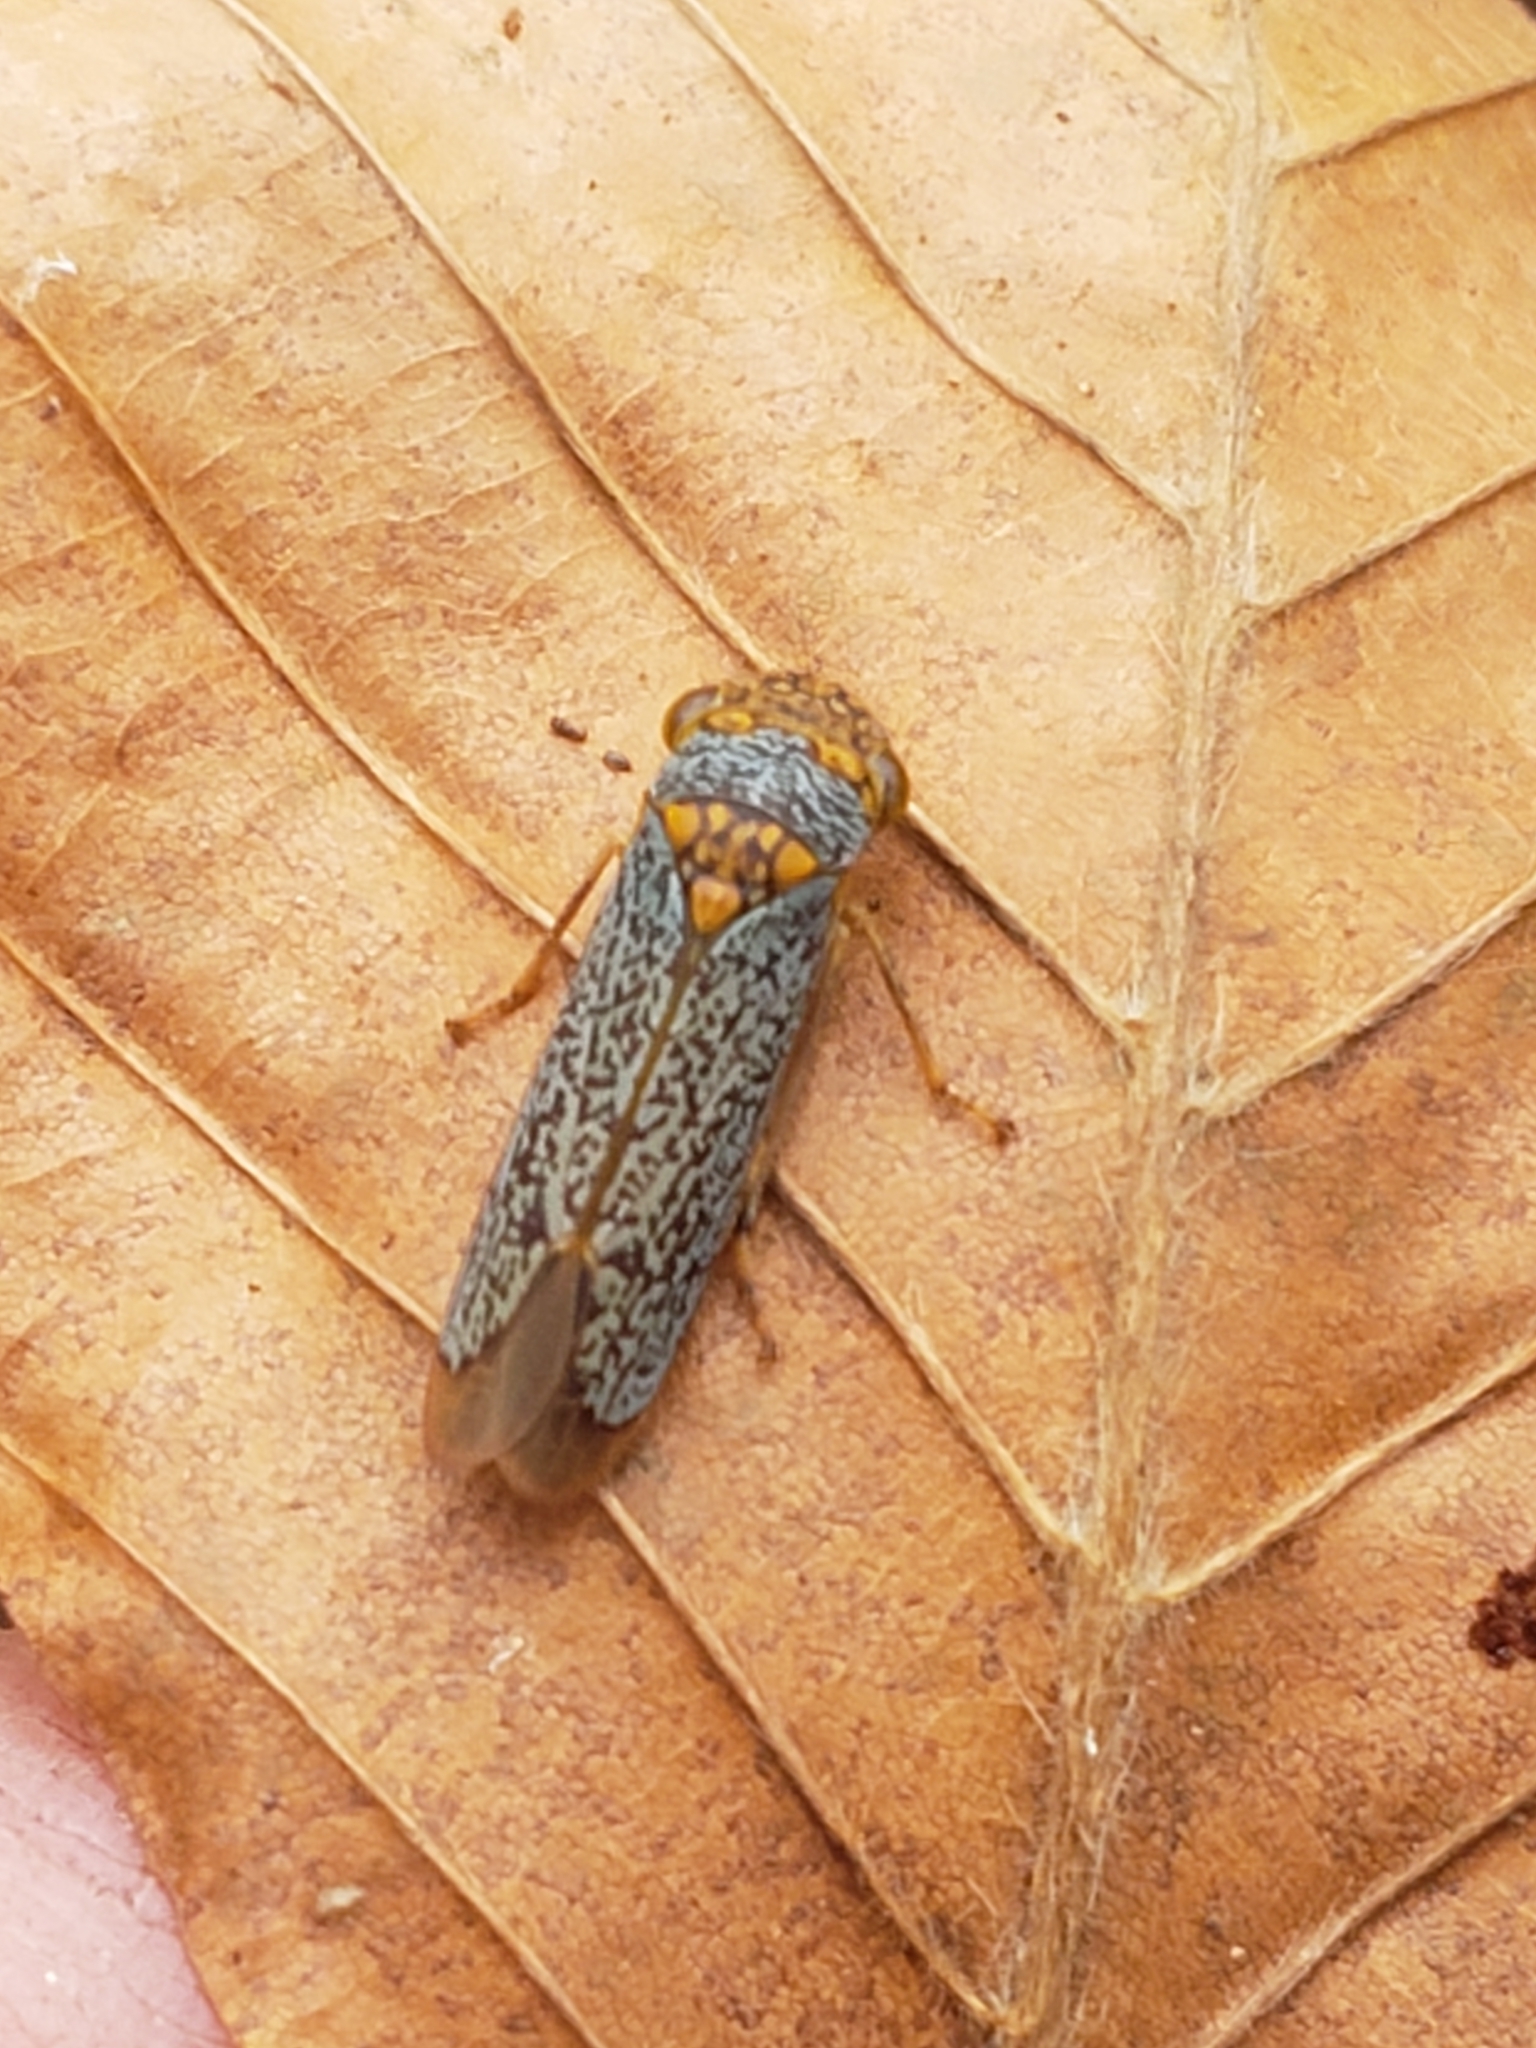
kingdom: Animalia
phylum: Arthropoda
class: Insecta
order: Hemiptera
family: Cicadellidae
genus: Oncometopia
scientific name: Oncometopia orbona
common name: Broad-headed sharpshooter
